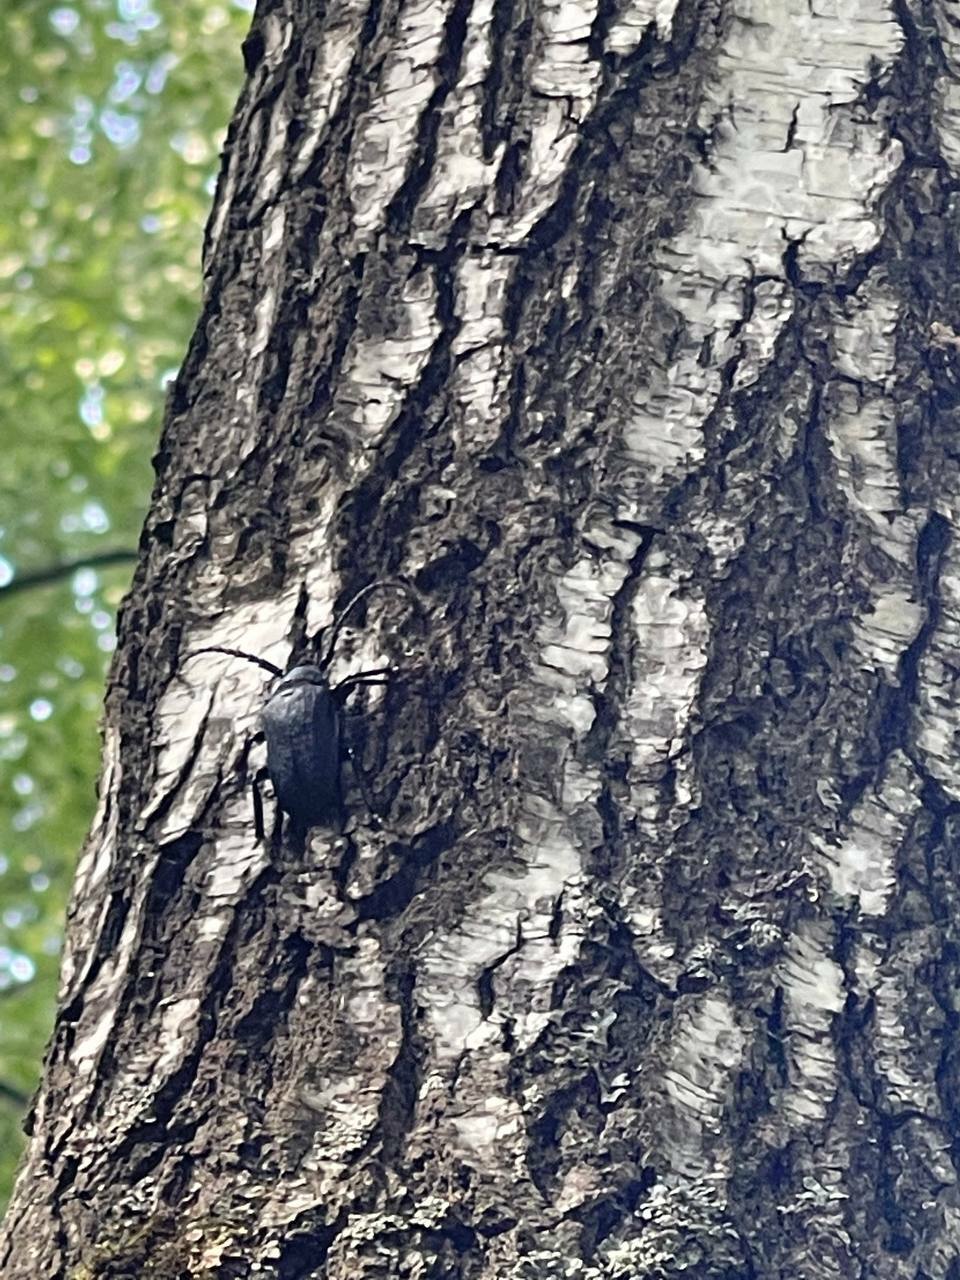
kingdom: Animalia
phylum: Arthropoda
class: Insecta
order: Coleoptera
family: Cerambycidae
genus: Prionus
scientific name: Prionus coriarius
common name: Tanner beetle
